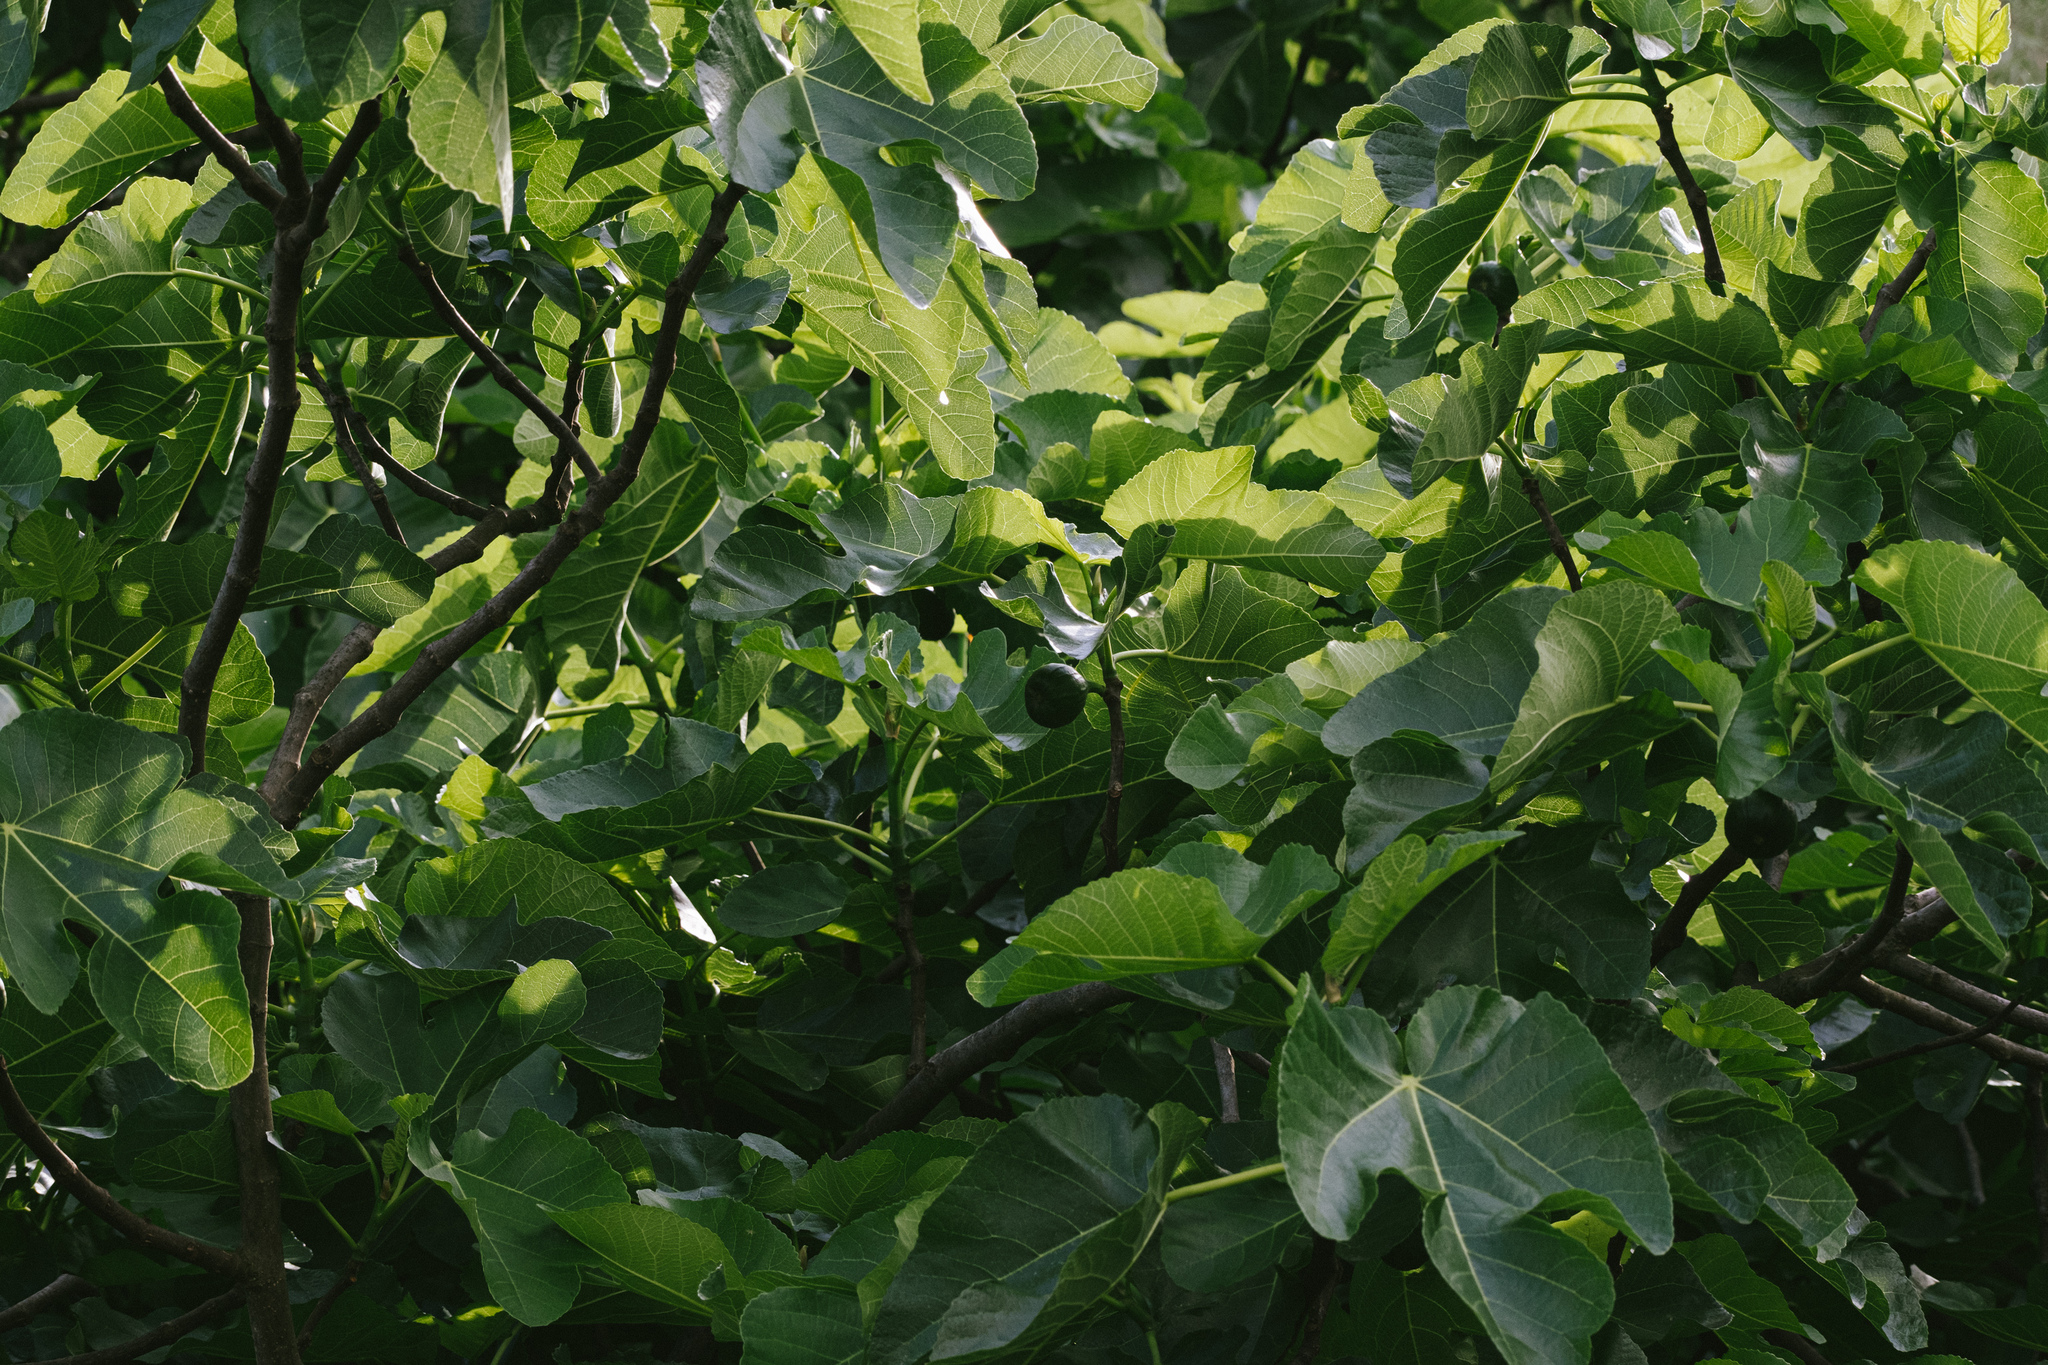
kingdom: Plantae
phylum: Tracheophyta
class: Magnoliopsida
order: Rosales
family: Moraceae
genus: Ficus
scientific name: Ficus carica
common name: Fig
